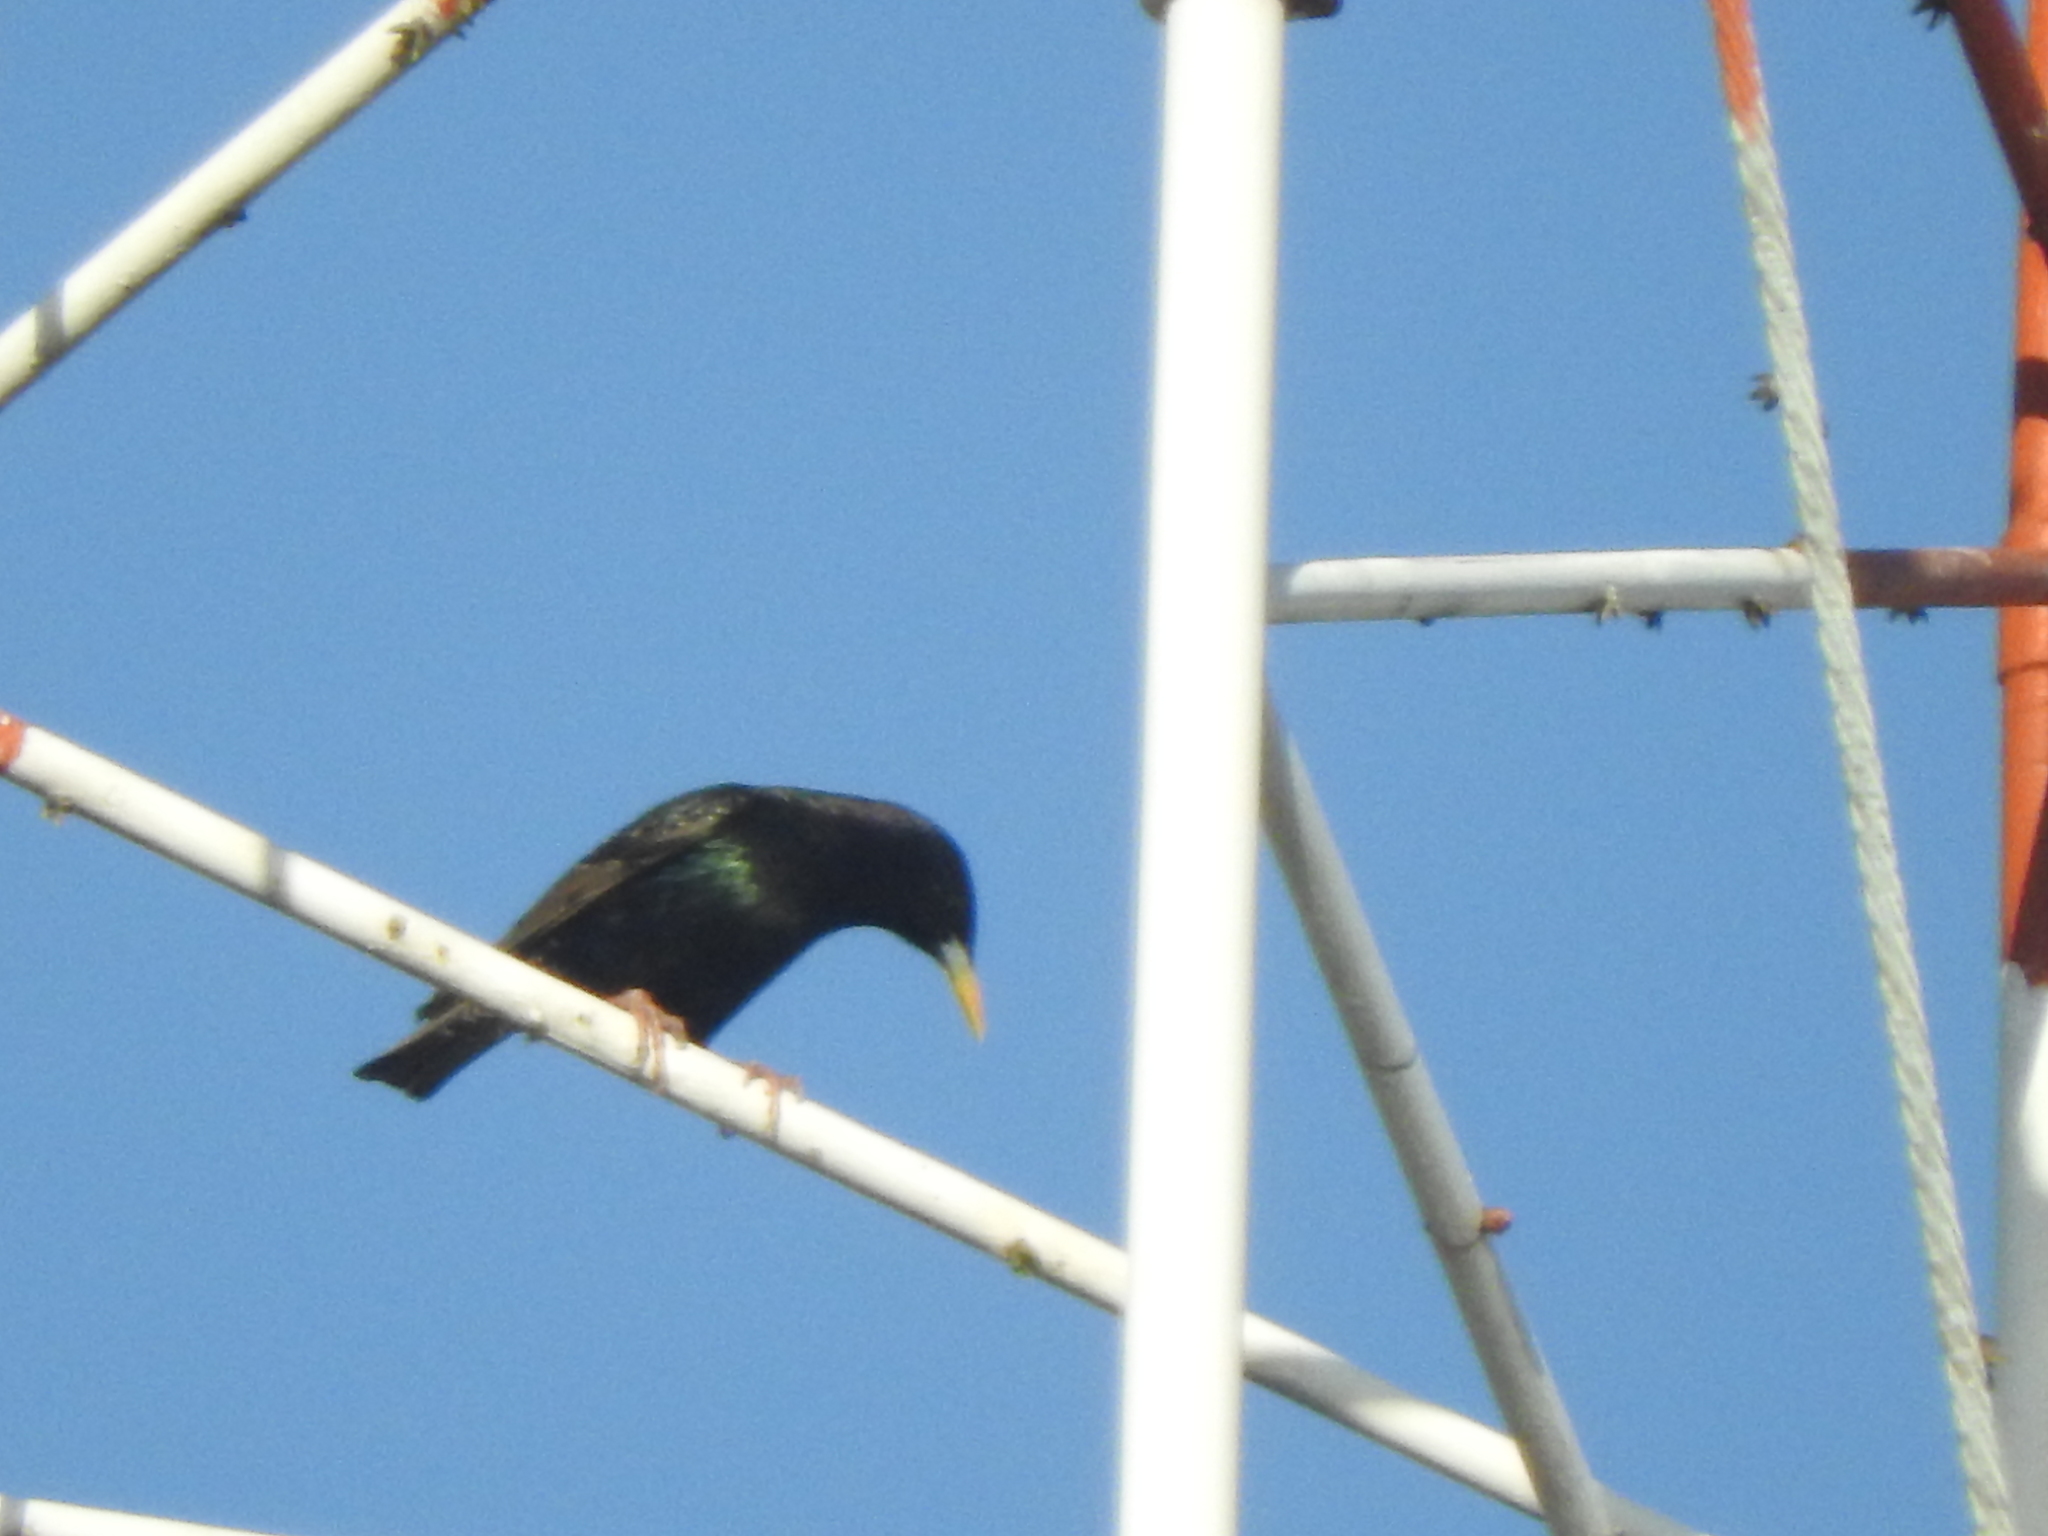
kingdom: Animalia
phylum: Chordata
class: Aves
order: Passeriformes
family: Sturnidae
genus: Sturnus
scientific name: Sturnus vulgaris
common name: Common starling
